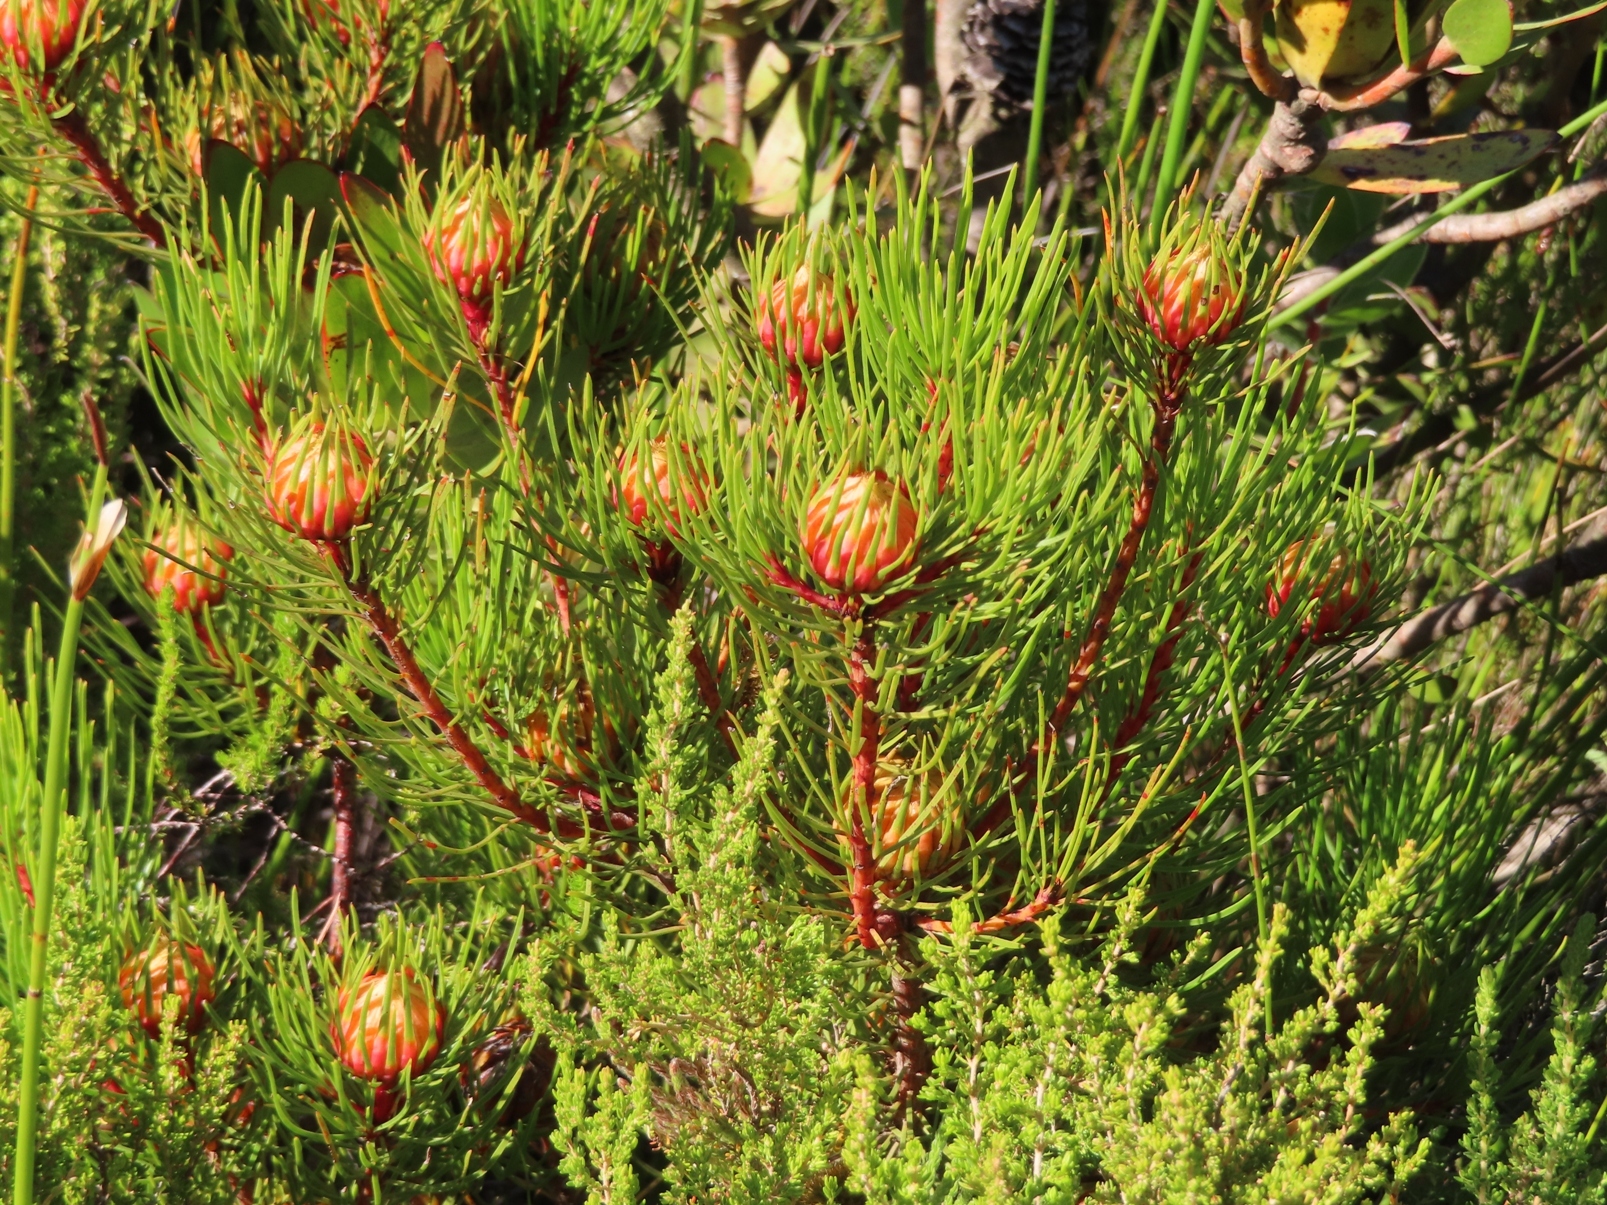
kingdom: Plantae
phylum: Tracheophyta
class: Magnoliopsida
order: Proteales
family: Proteaceae
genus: Aulax
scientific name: Aulax cancellata
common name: Channel-leaf featherbush
